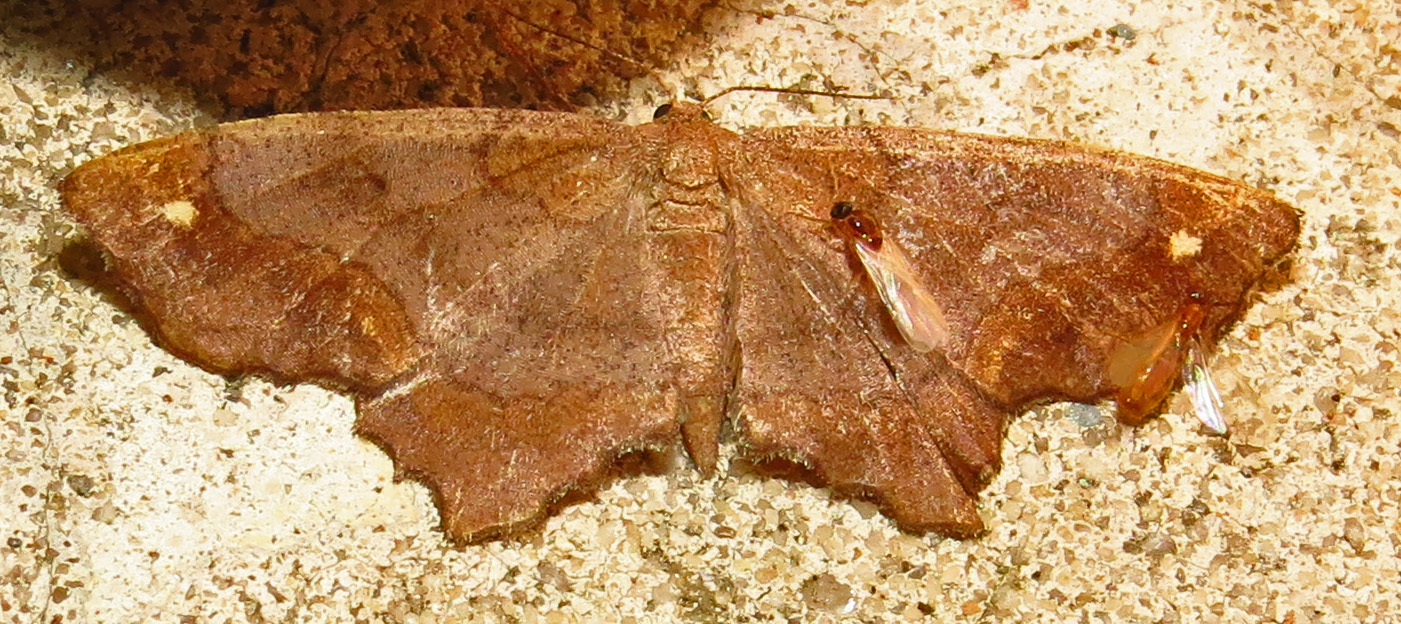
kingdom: Animalia
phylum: Arthropoda
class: Insecta
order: Lepidoptera
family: Geometridae
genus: Hypagyrtis
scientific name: Hypagyrtis unipunctata
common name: One-spotted variant
